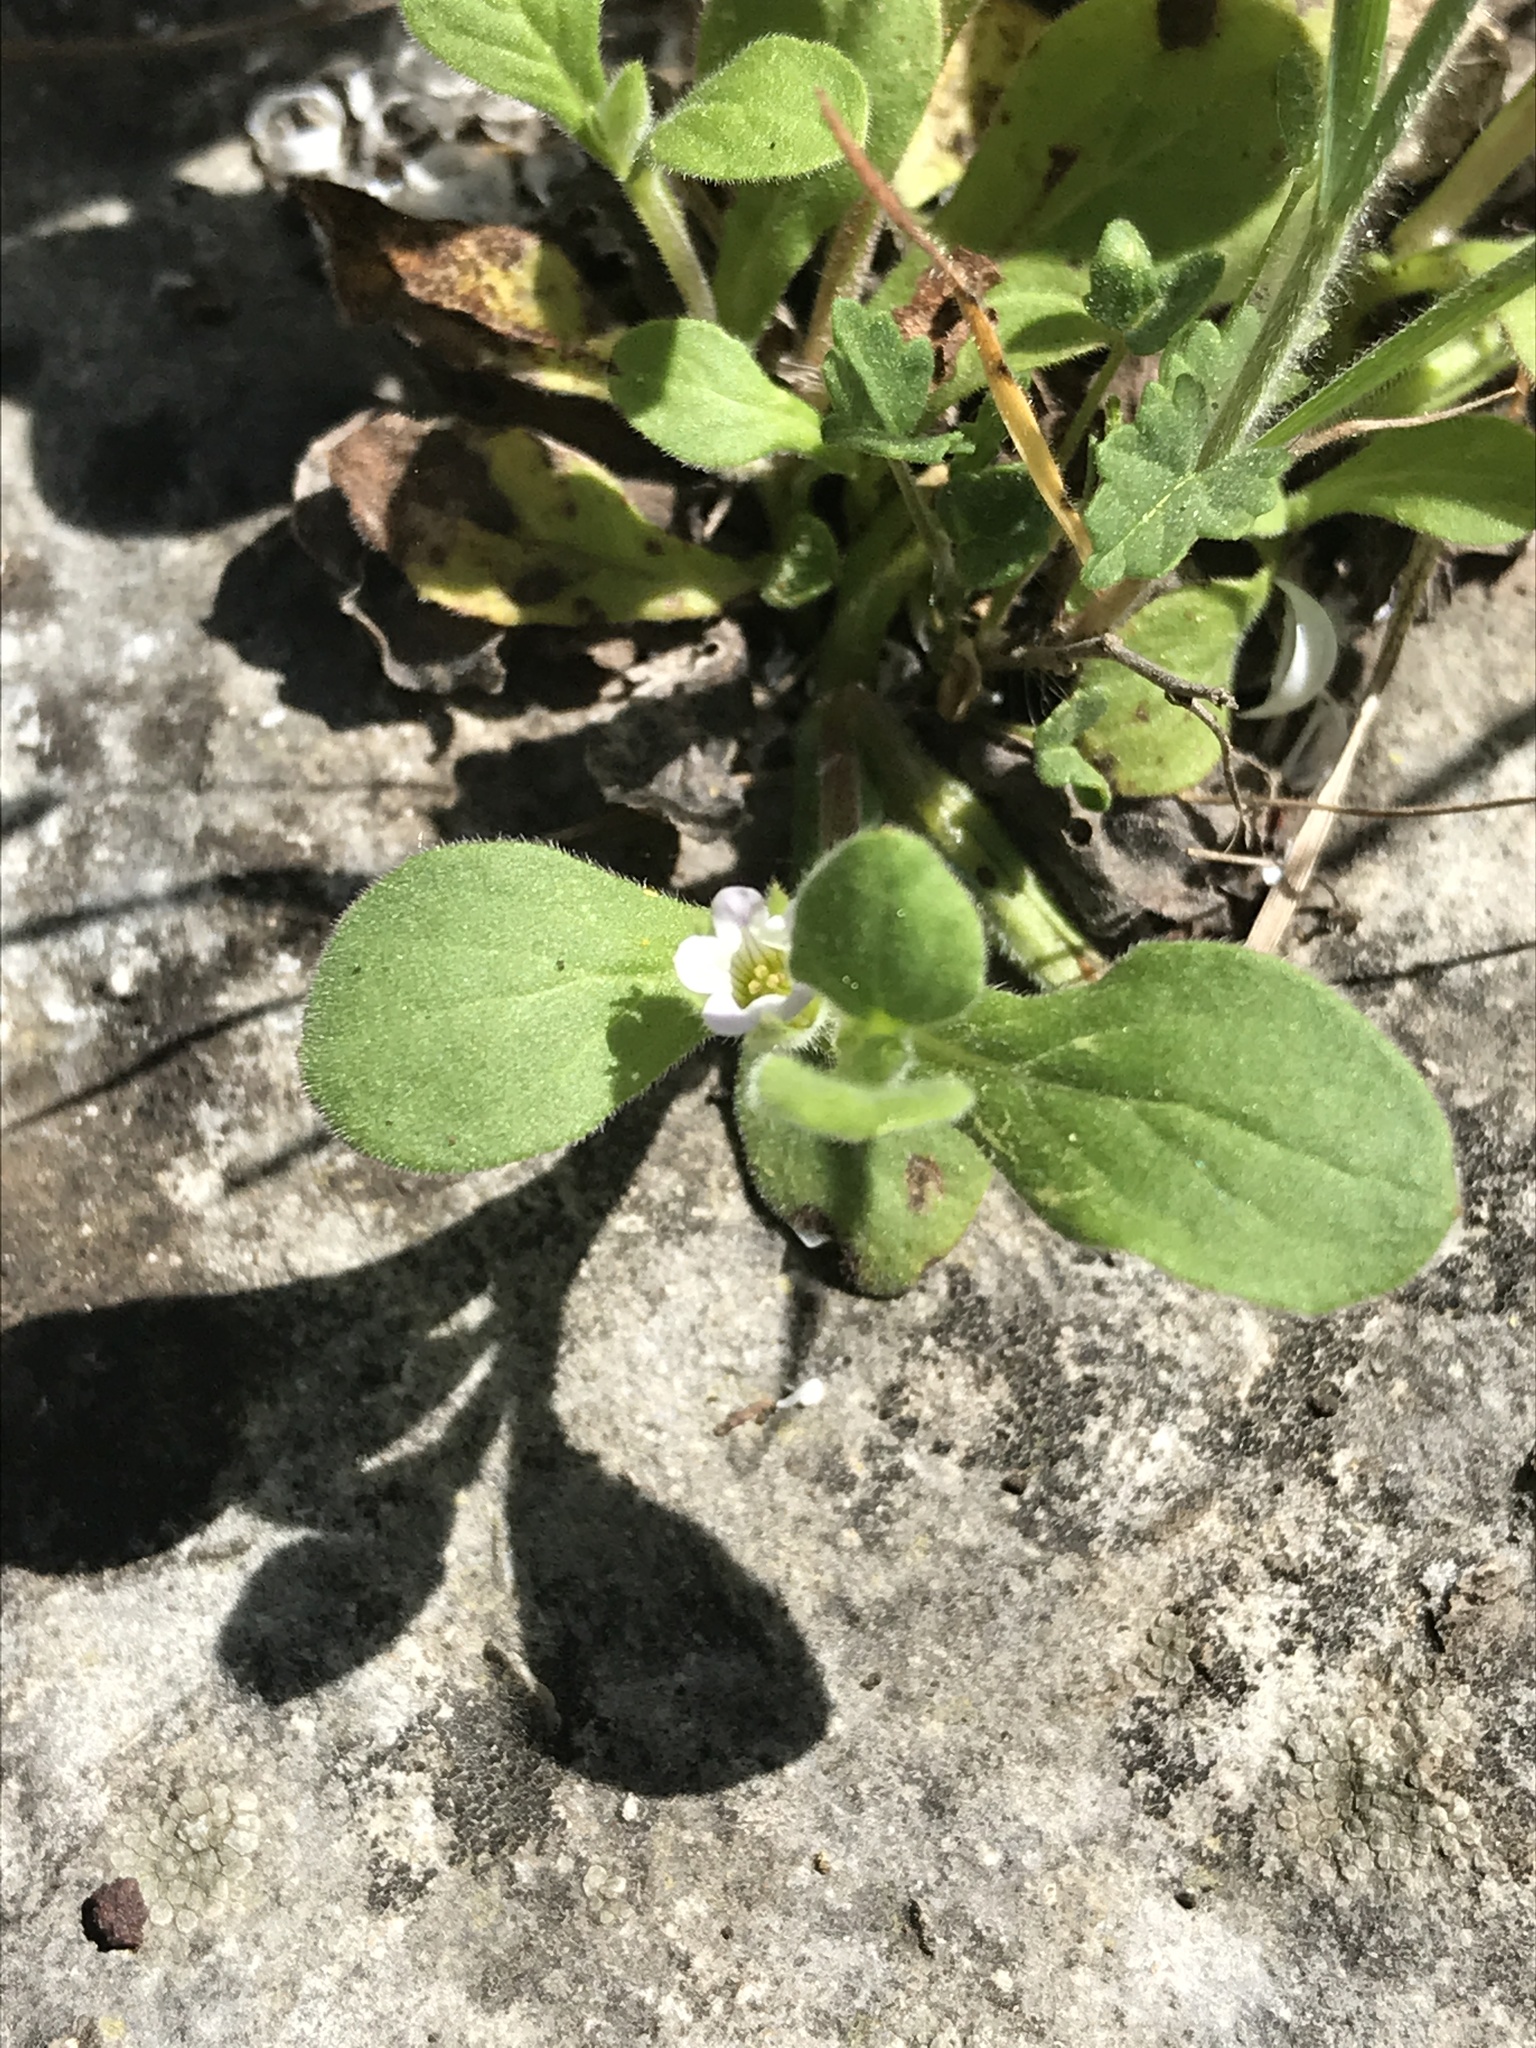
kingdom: Plantae
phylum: Tracheophyta
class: Magnoliopsida
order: Boraginales
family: Namaceae
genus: Nama
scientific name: Nama jamaicensis
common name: Jamaicanweed
